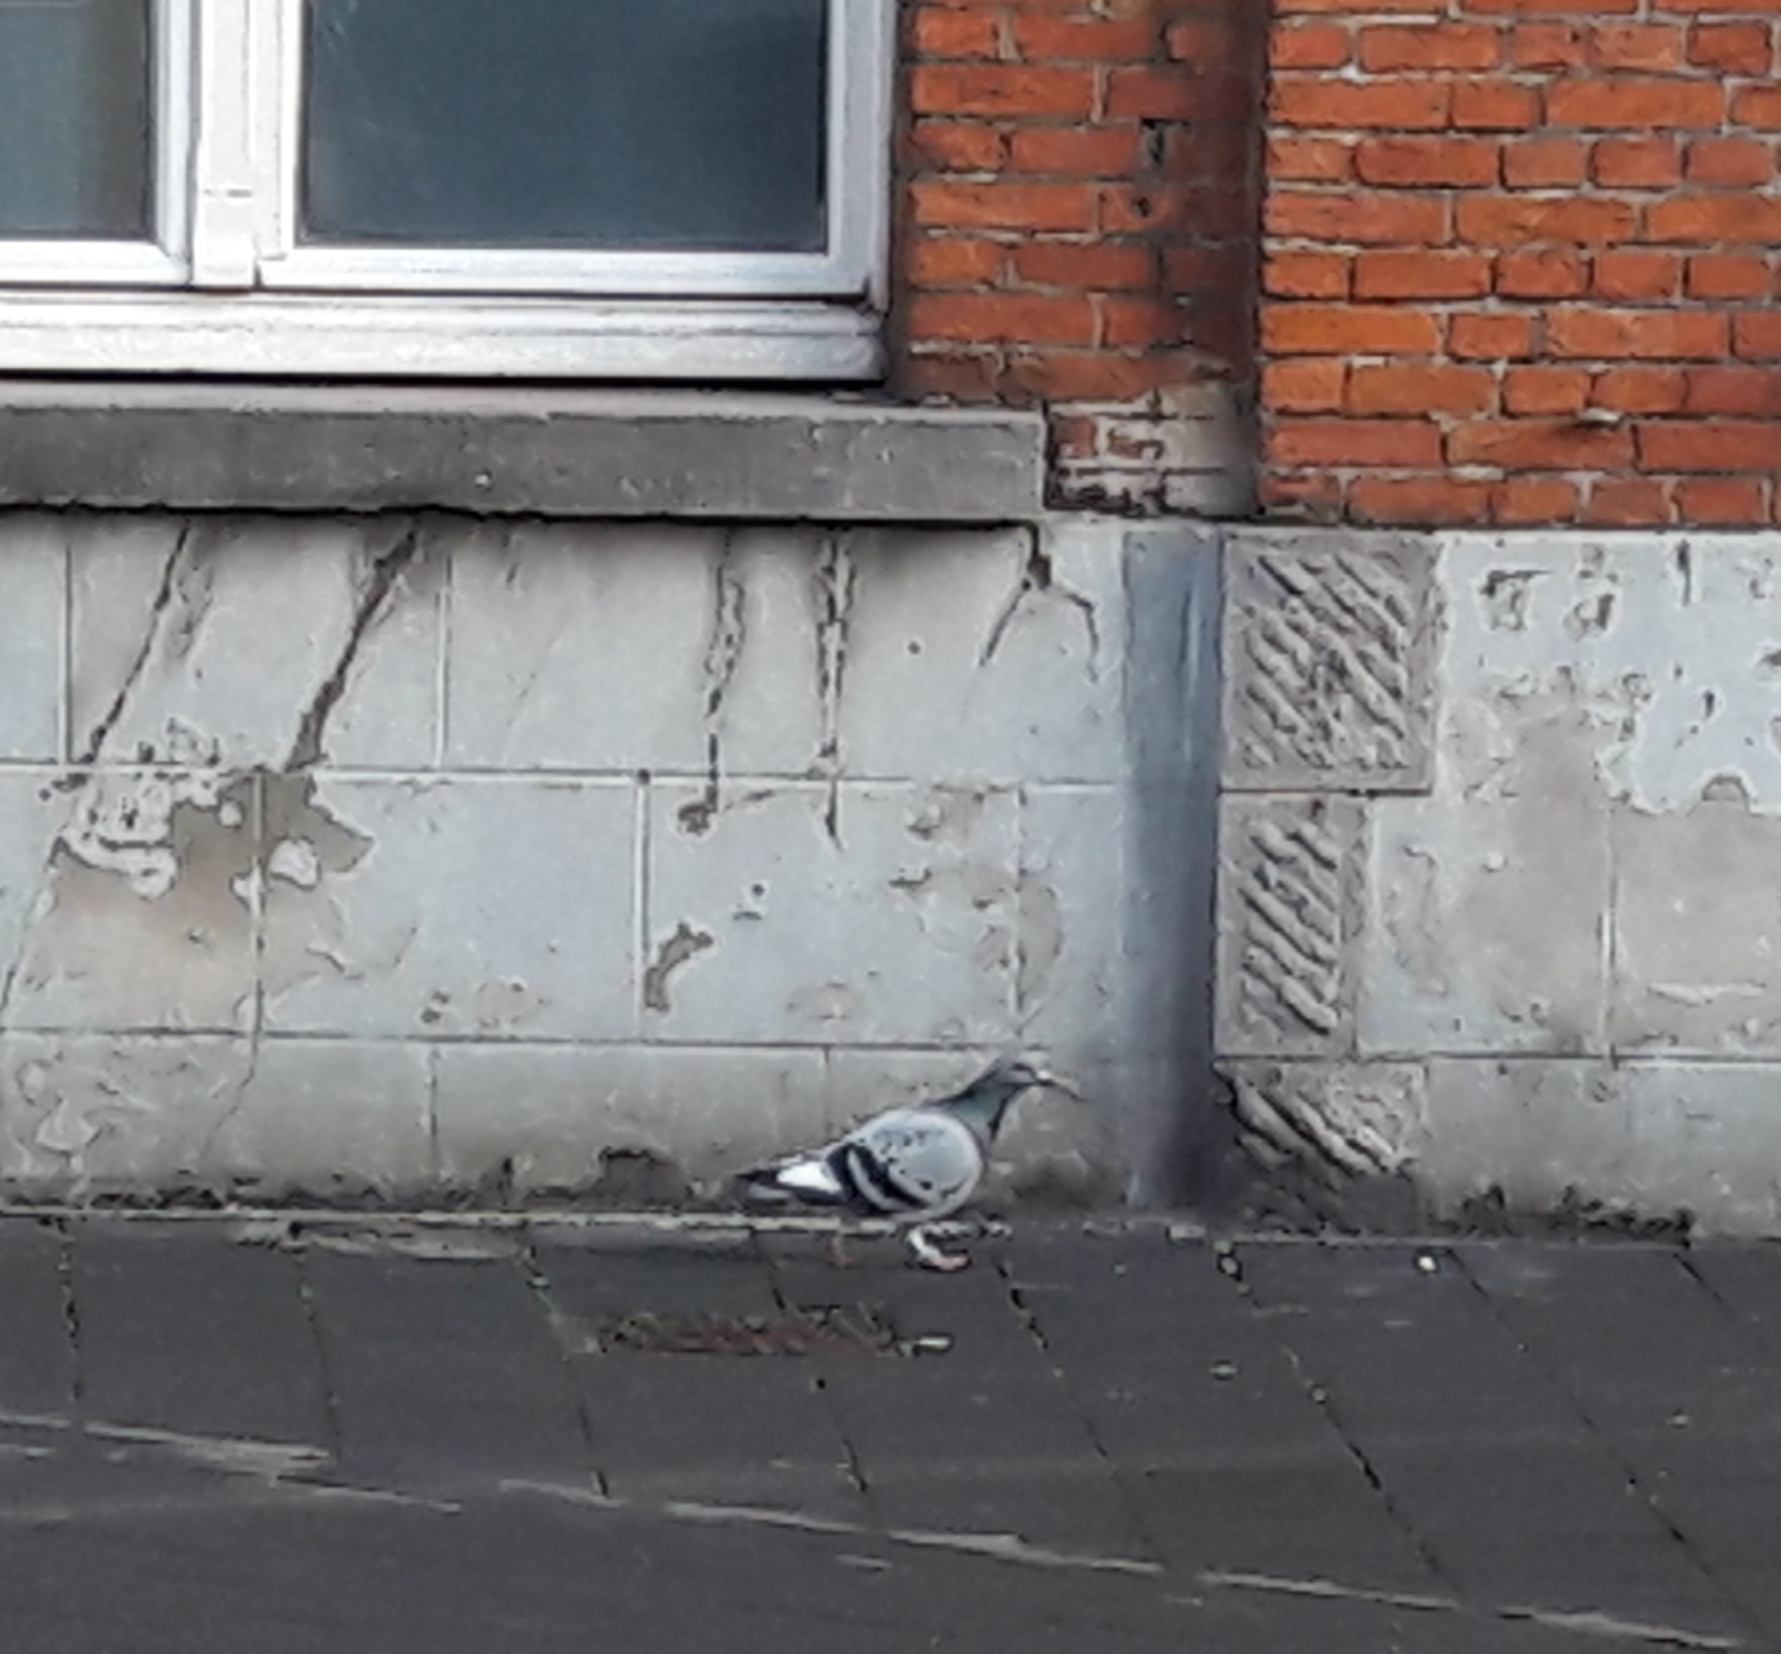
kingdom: Animalia
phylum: Chordata
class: Aves
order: Columbiformes
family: Columbidae
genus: Columba
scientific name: Columba livia
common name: Rock pigeon
